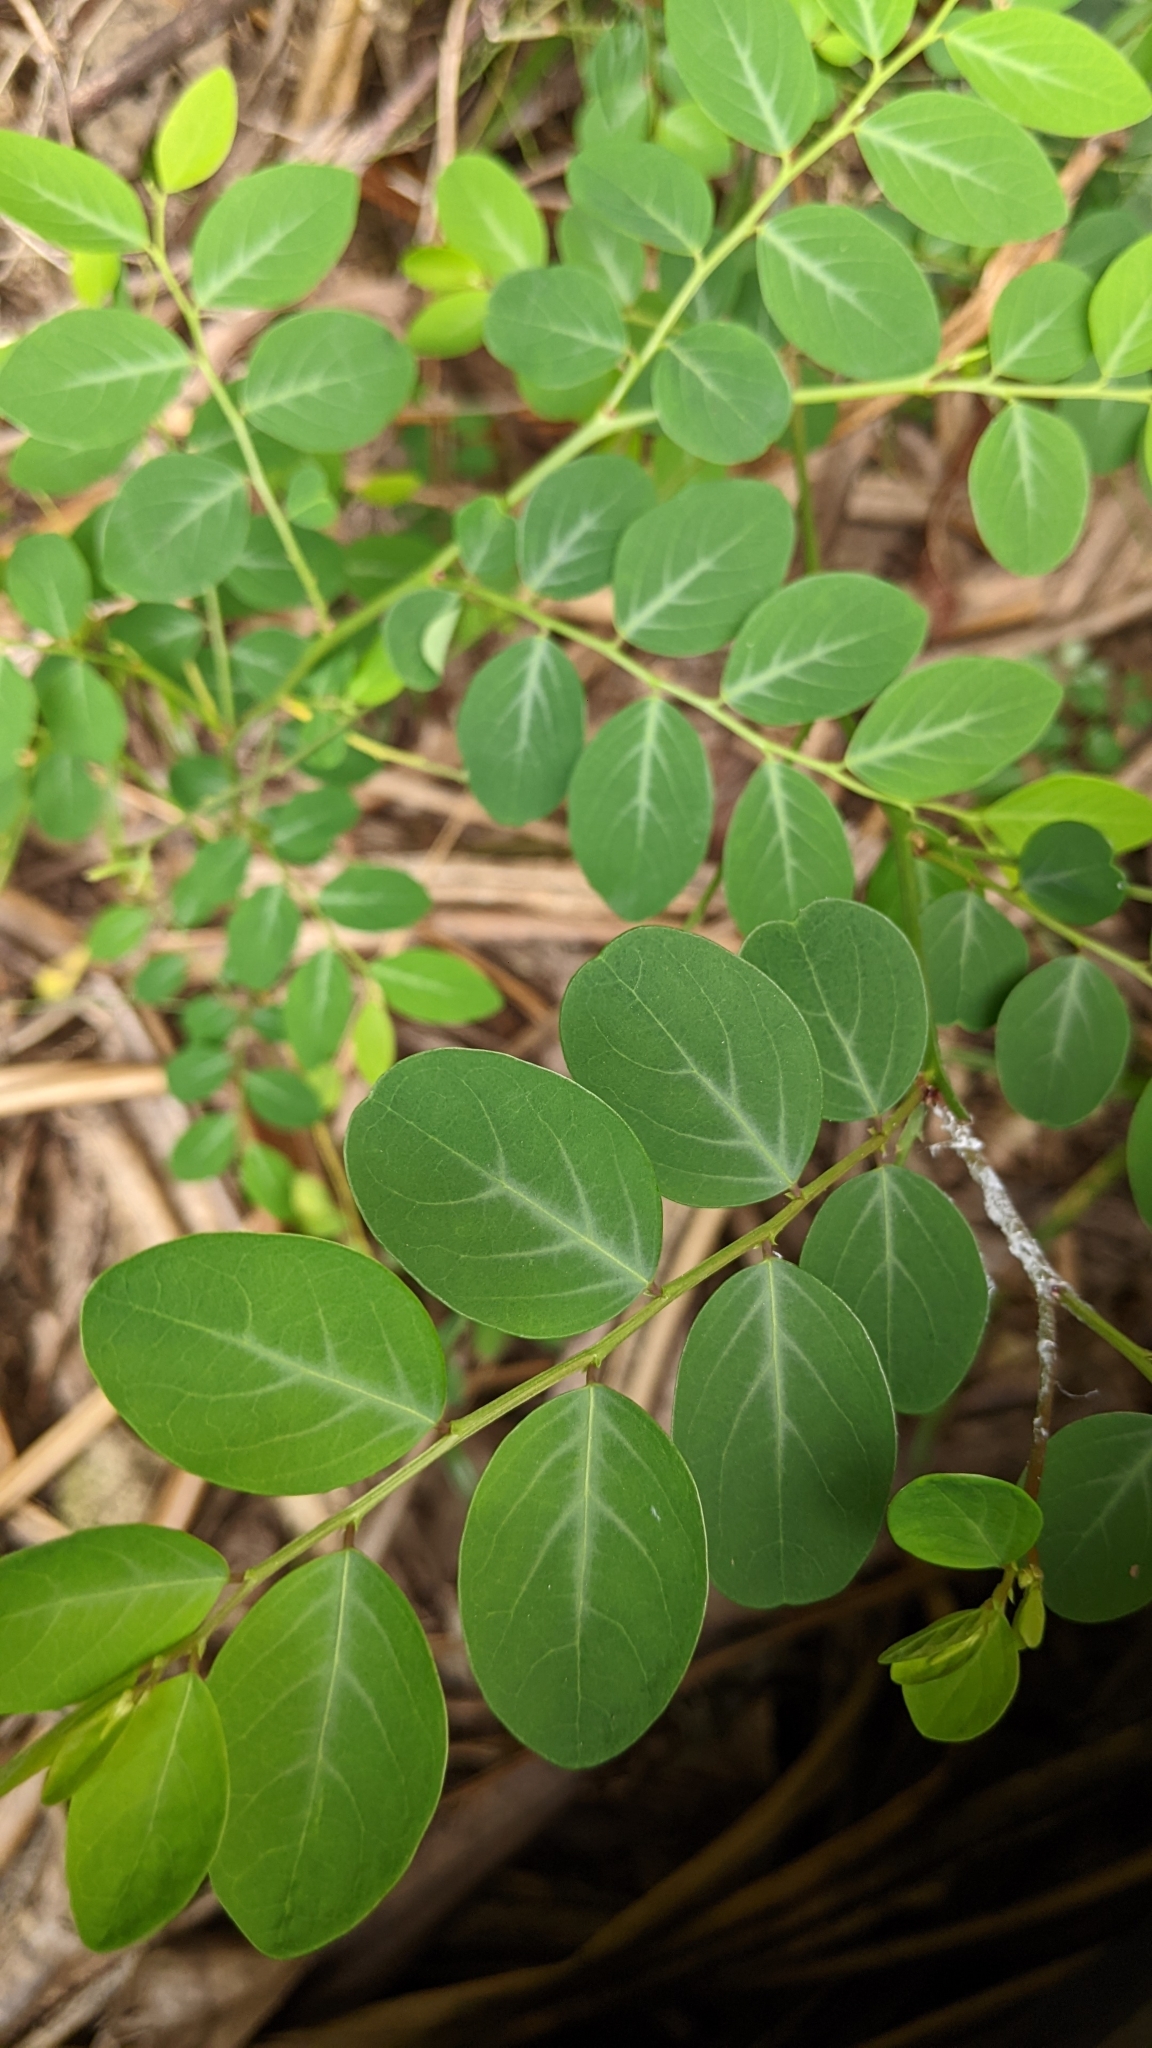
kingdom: Plantae
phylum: Tracheophyta
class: Magnoliopsida
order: Malpighiales
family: Phyllanthaceae
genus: Breynia
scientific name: Breynia vitis-idaea
